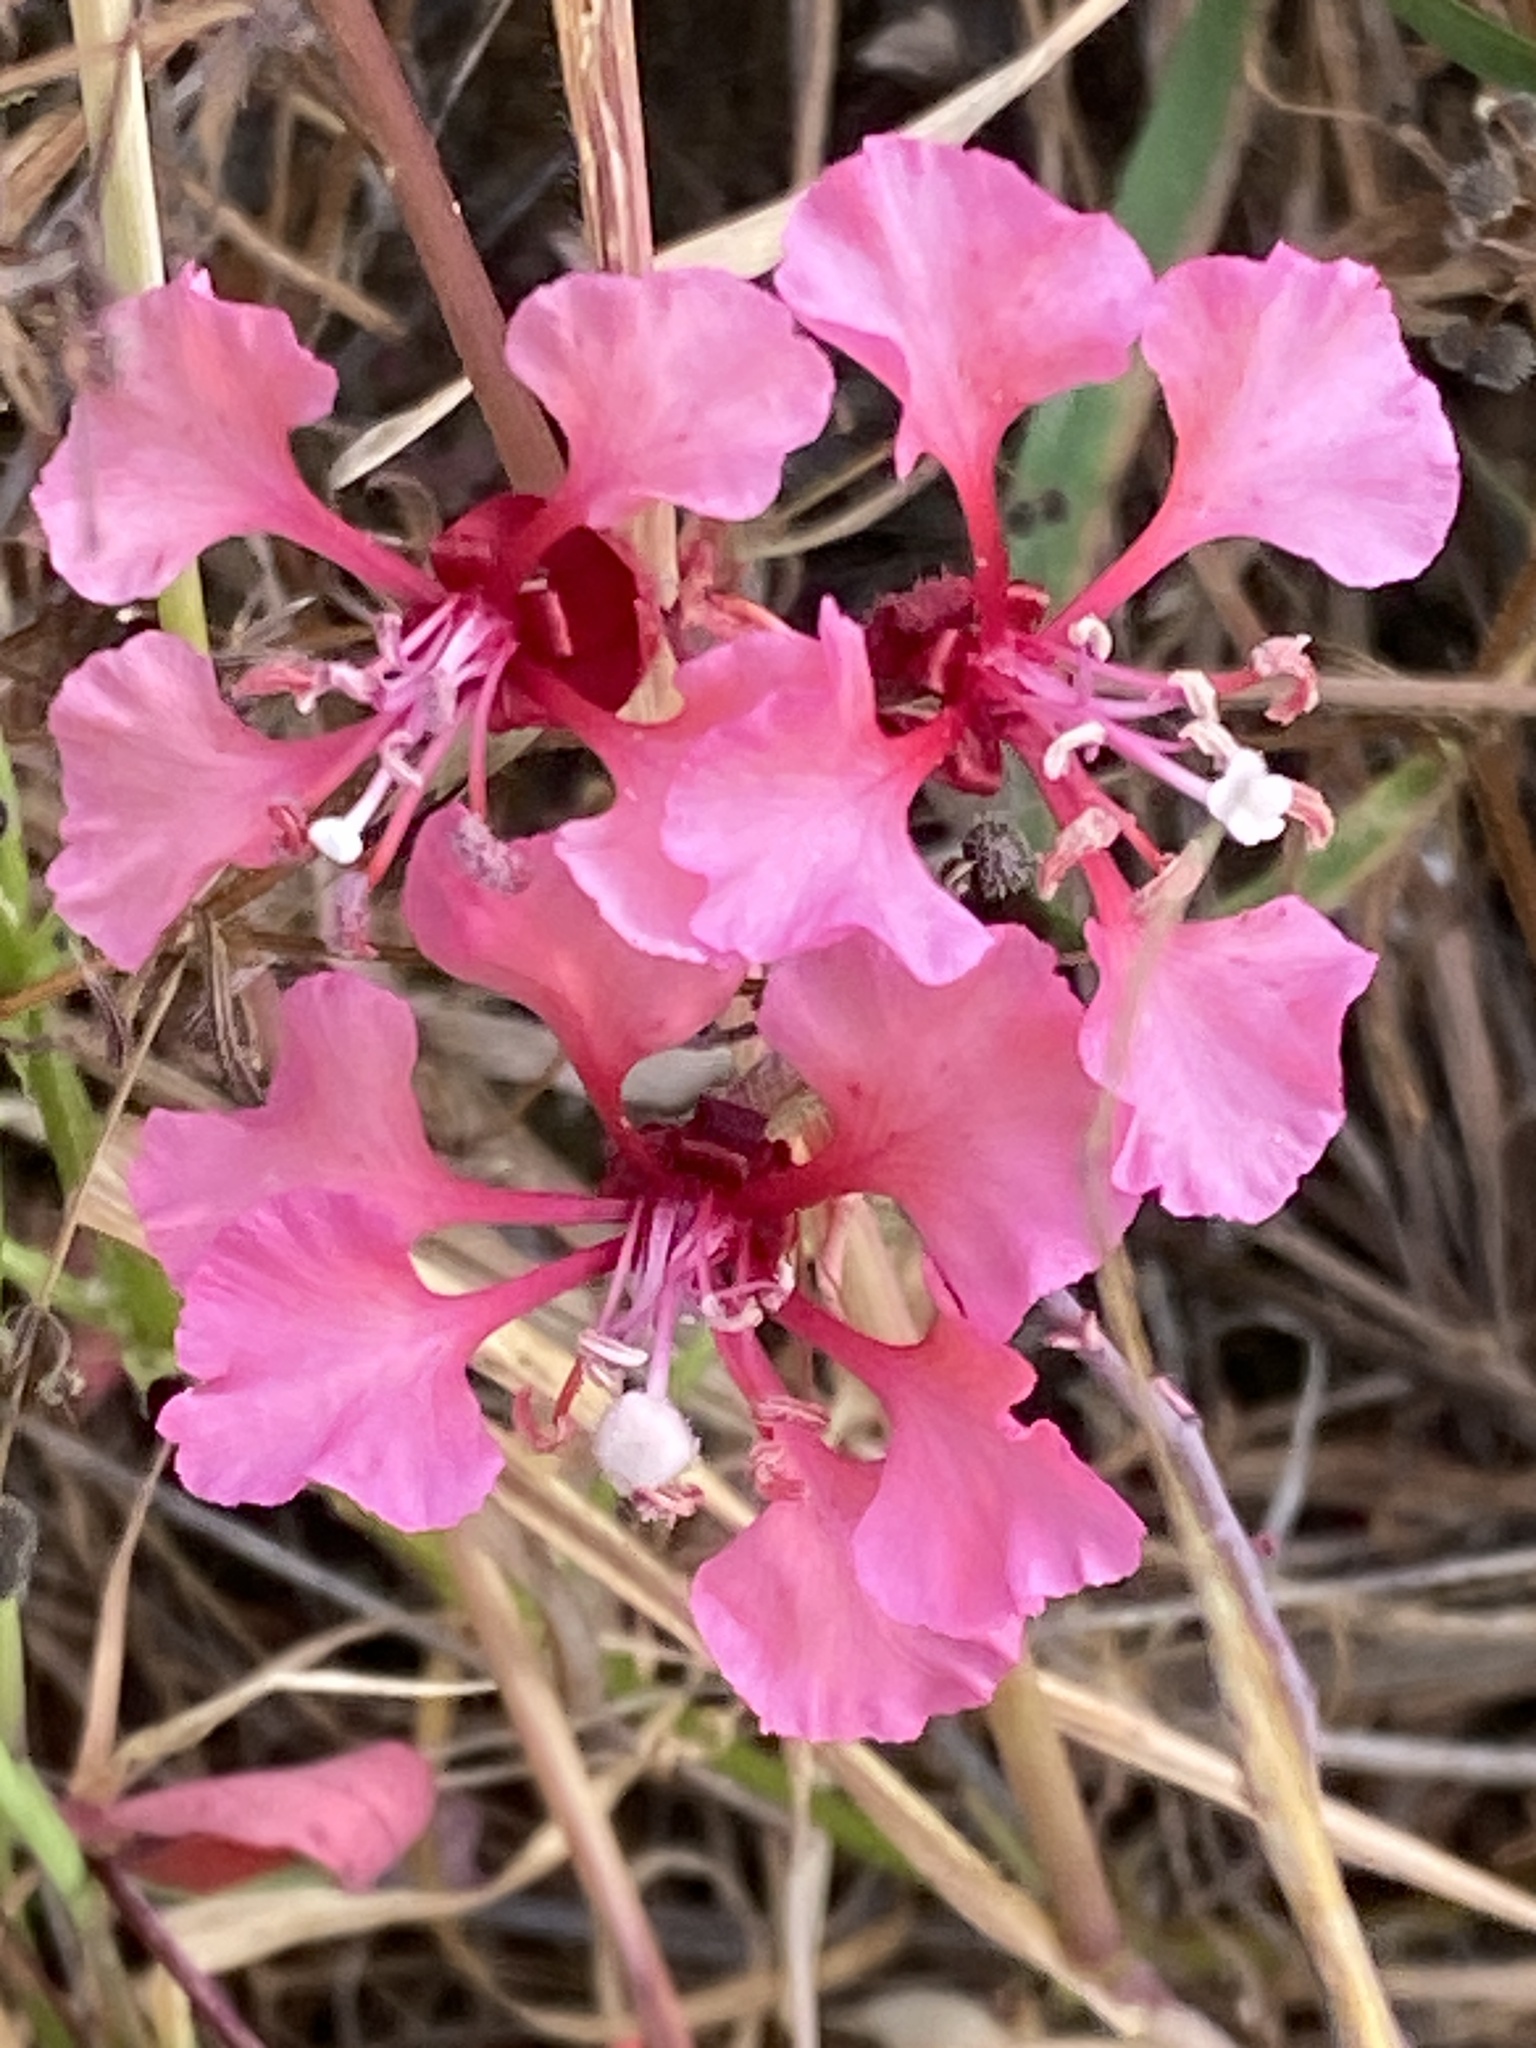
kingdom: Plantae
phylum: Tracheophyta
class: Magnoliopsida
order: Myrtales
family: Onagraceae
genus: Clarkia
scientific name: Clarkia unguiculata
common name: Clarkia
